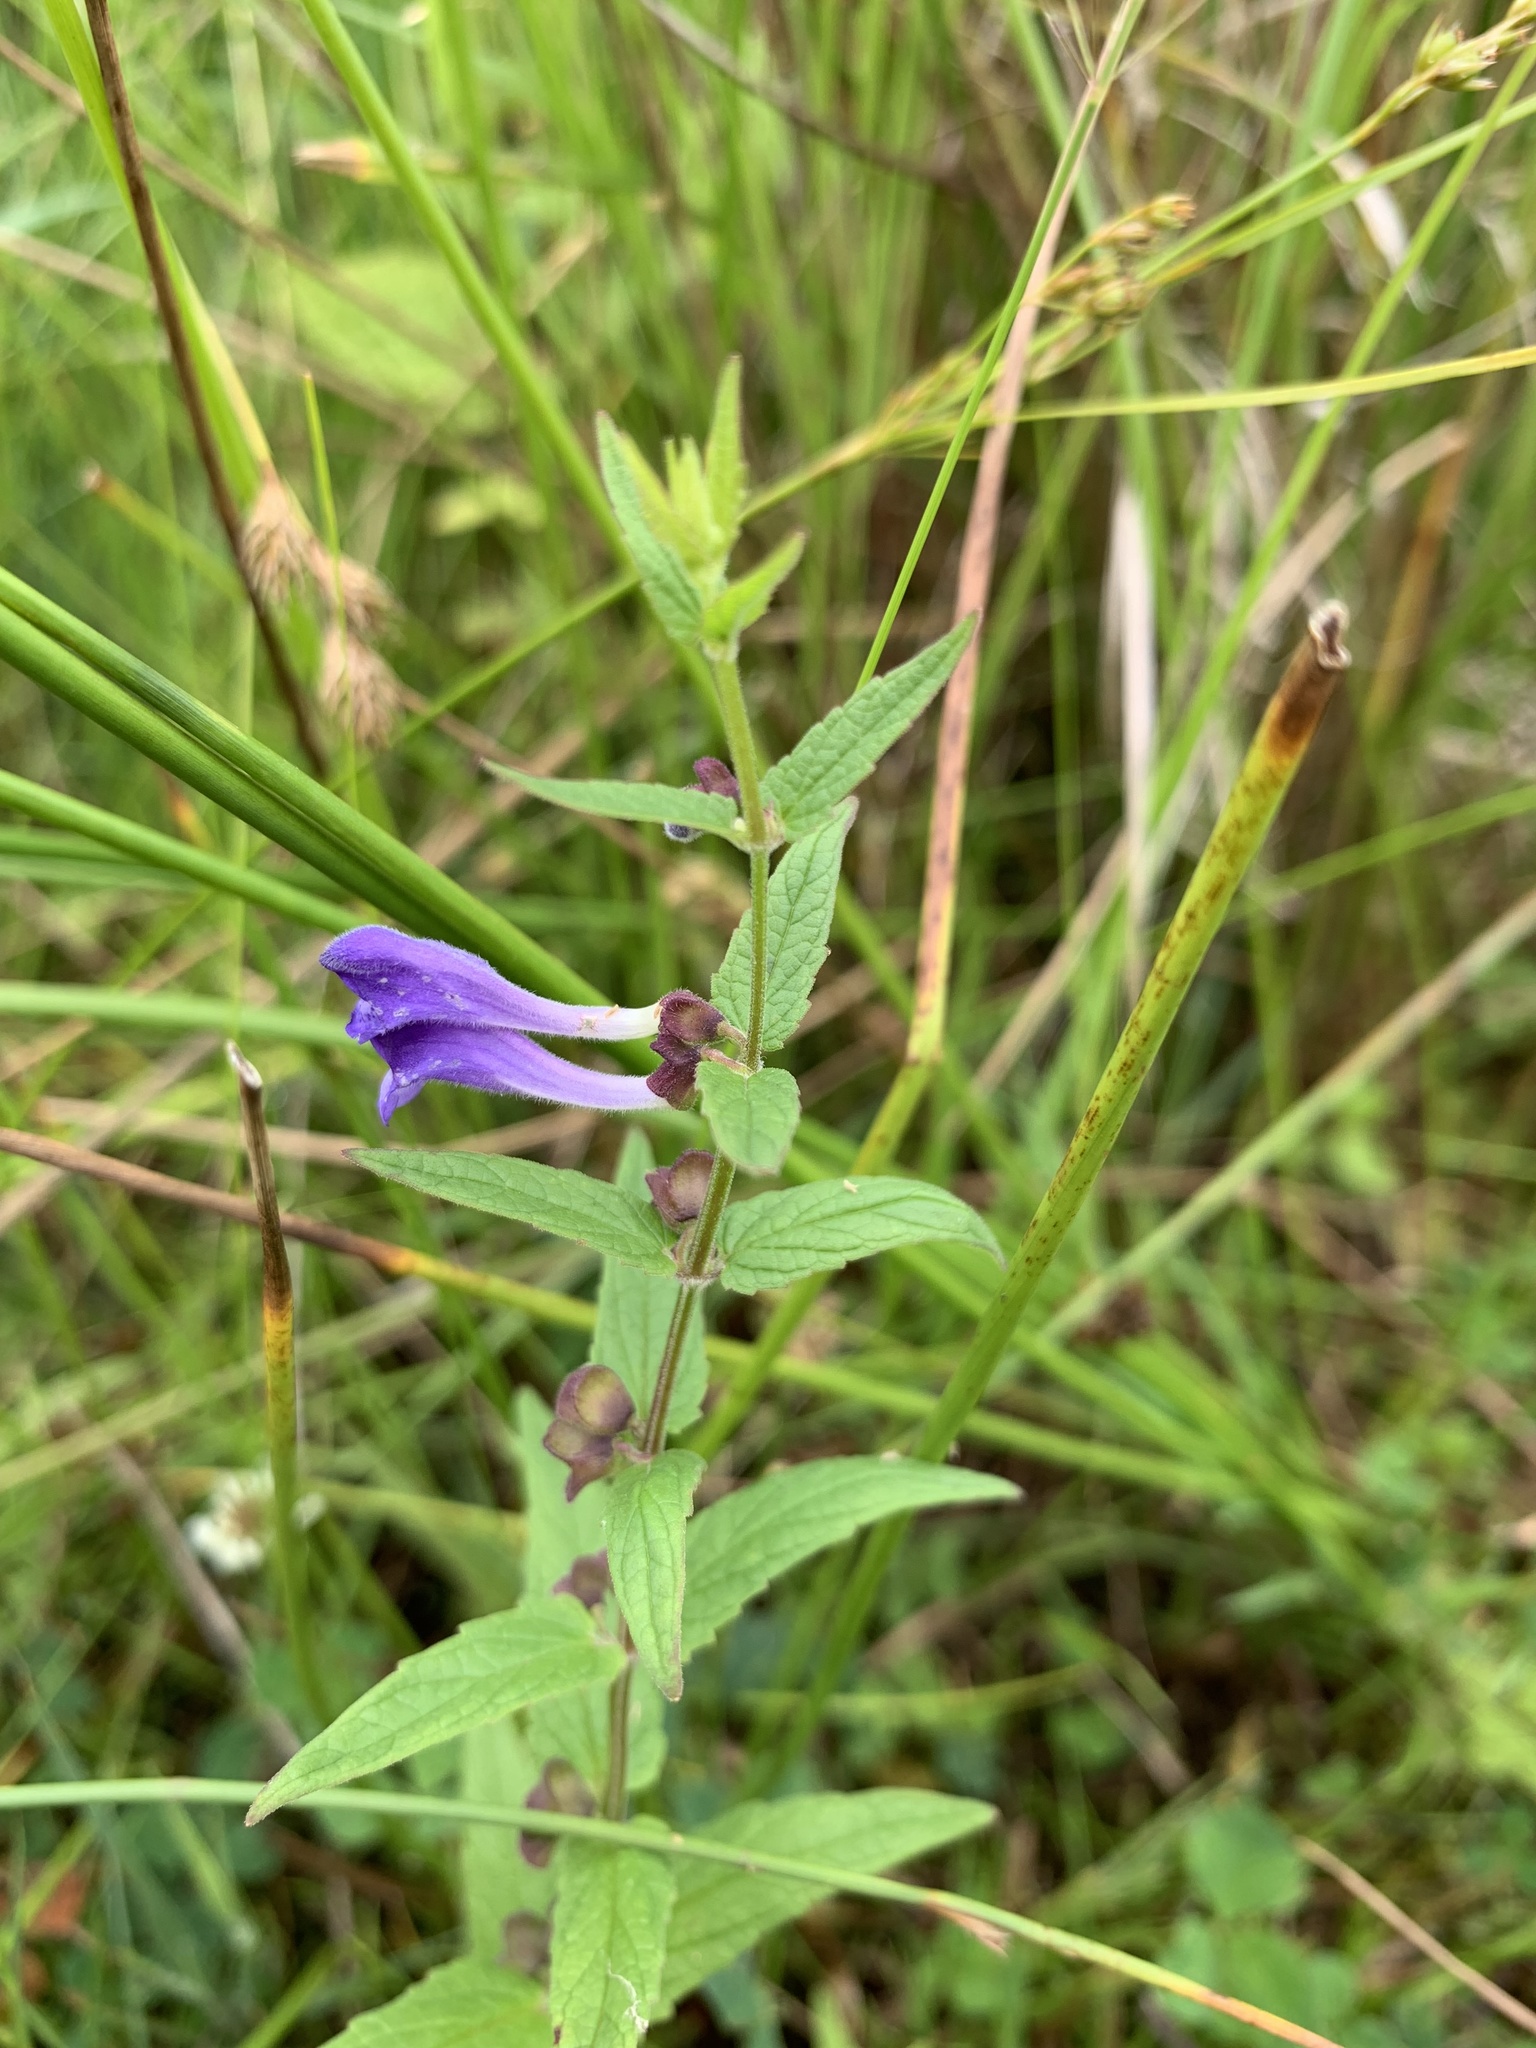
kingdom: Plantae
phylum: Tracheophyta
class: Magnoliopsida
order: Lamiales
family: Lamiaceae
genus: Scutellaria
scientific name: Scutellaria galericulata
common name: Skullcap
